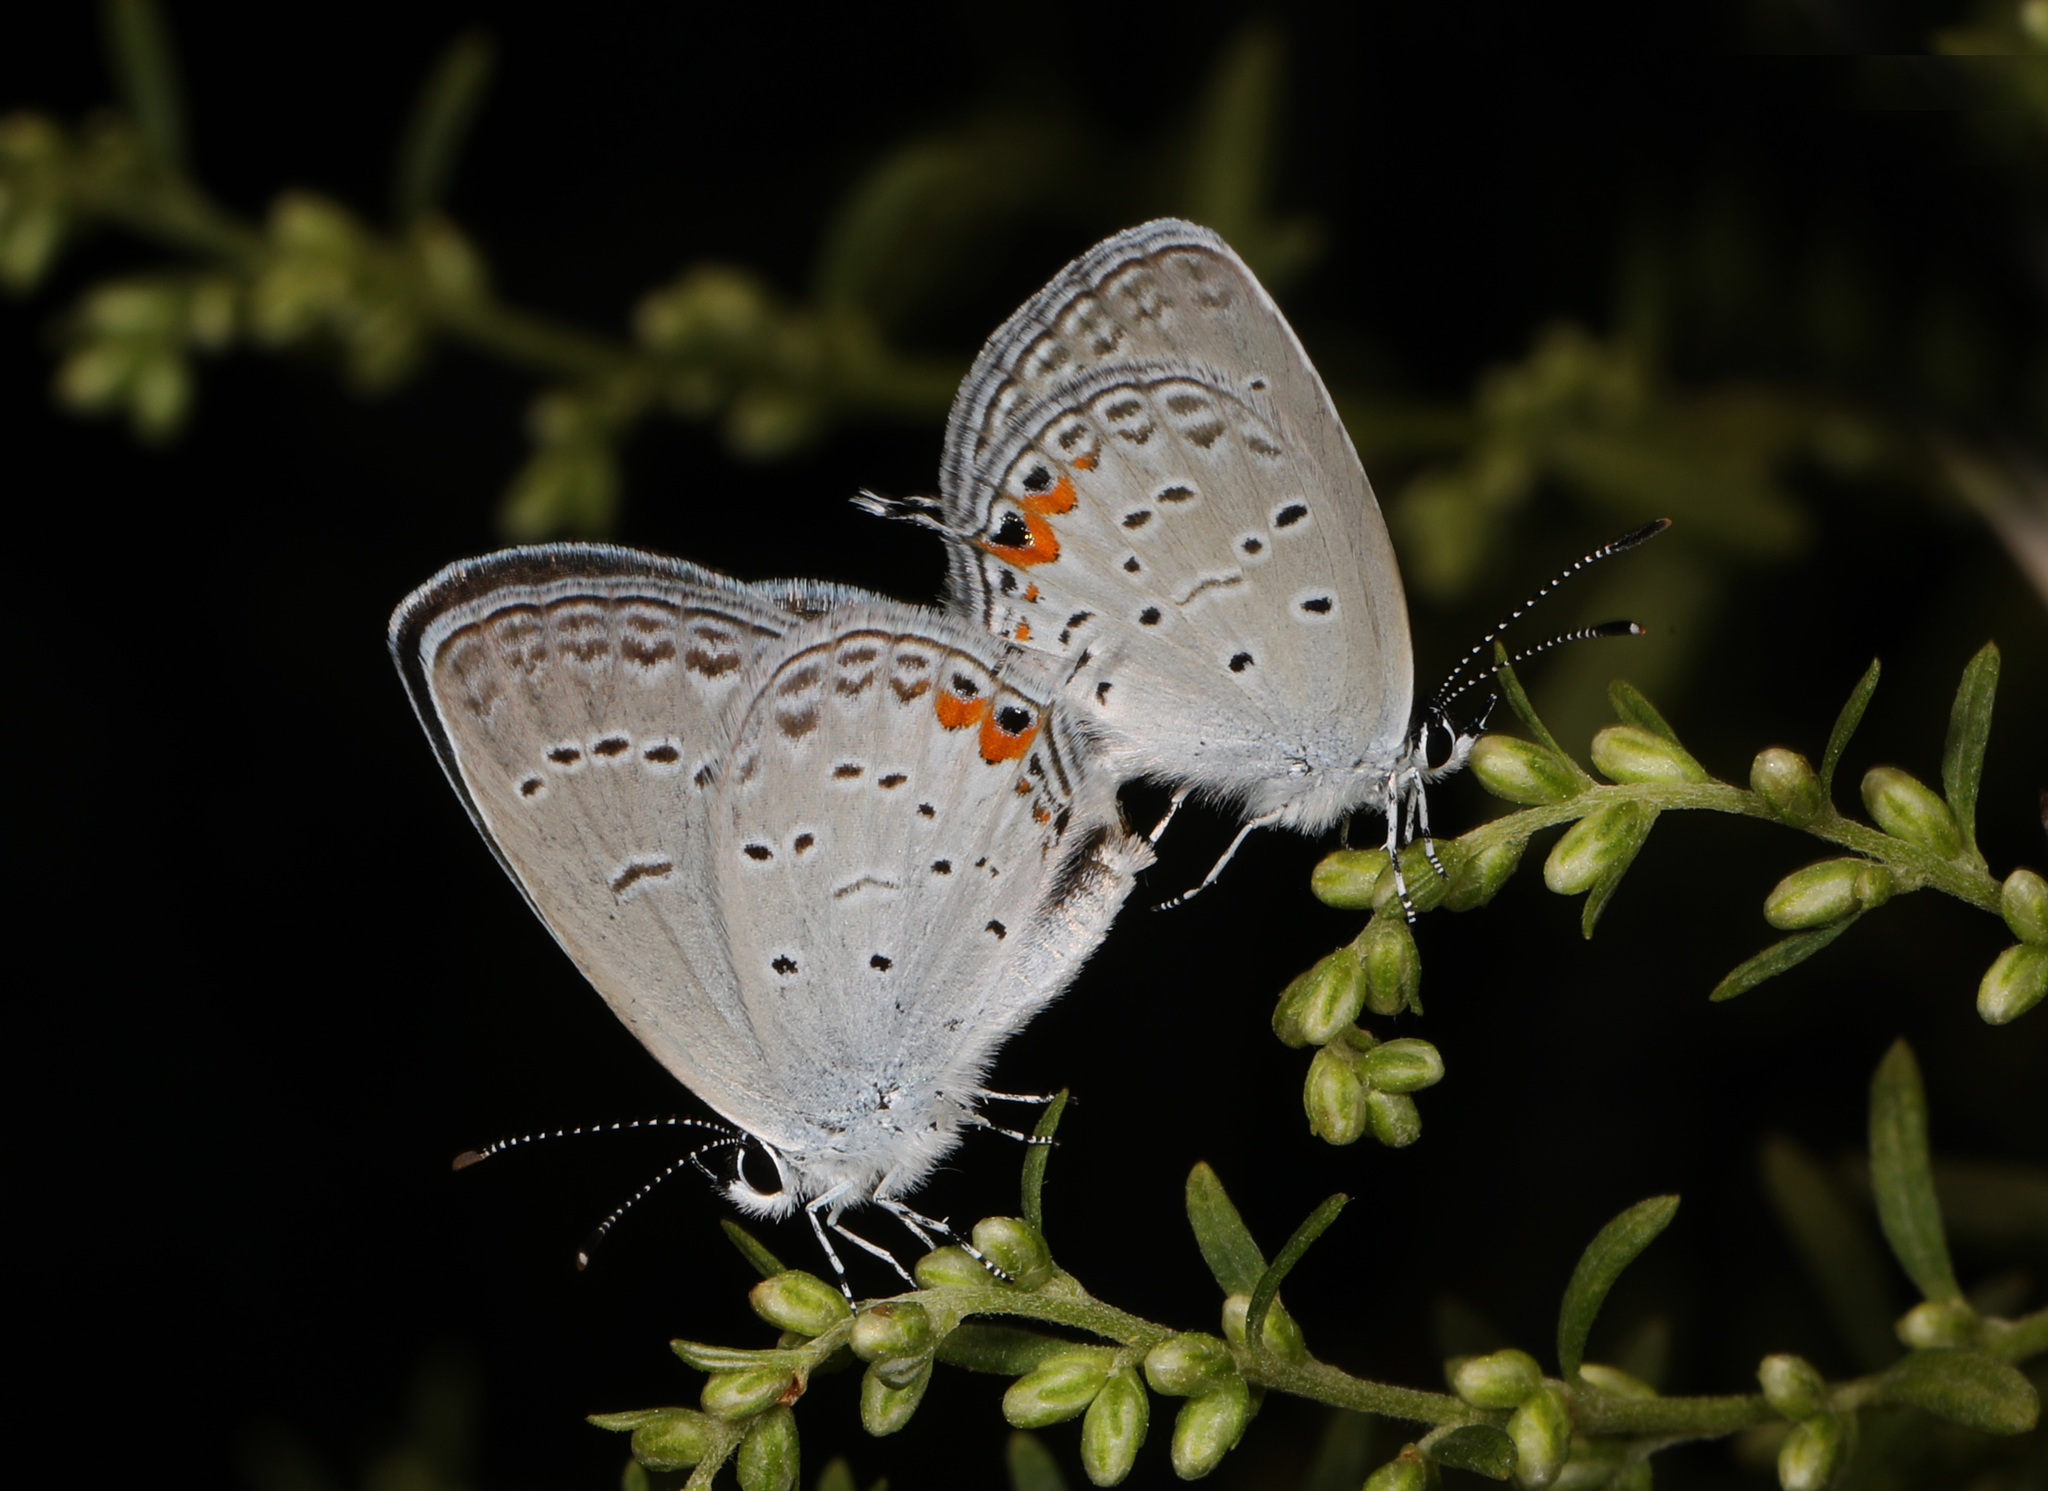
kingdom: Animalia
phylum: Arthropoda
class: Insecta
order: Lepidoptera
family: Lycaenidae
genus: Elkalyce
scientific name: Elkalyce comyntas
